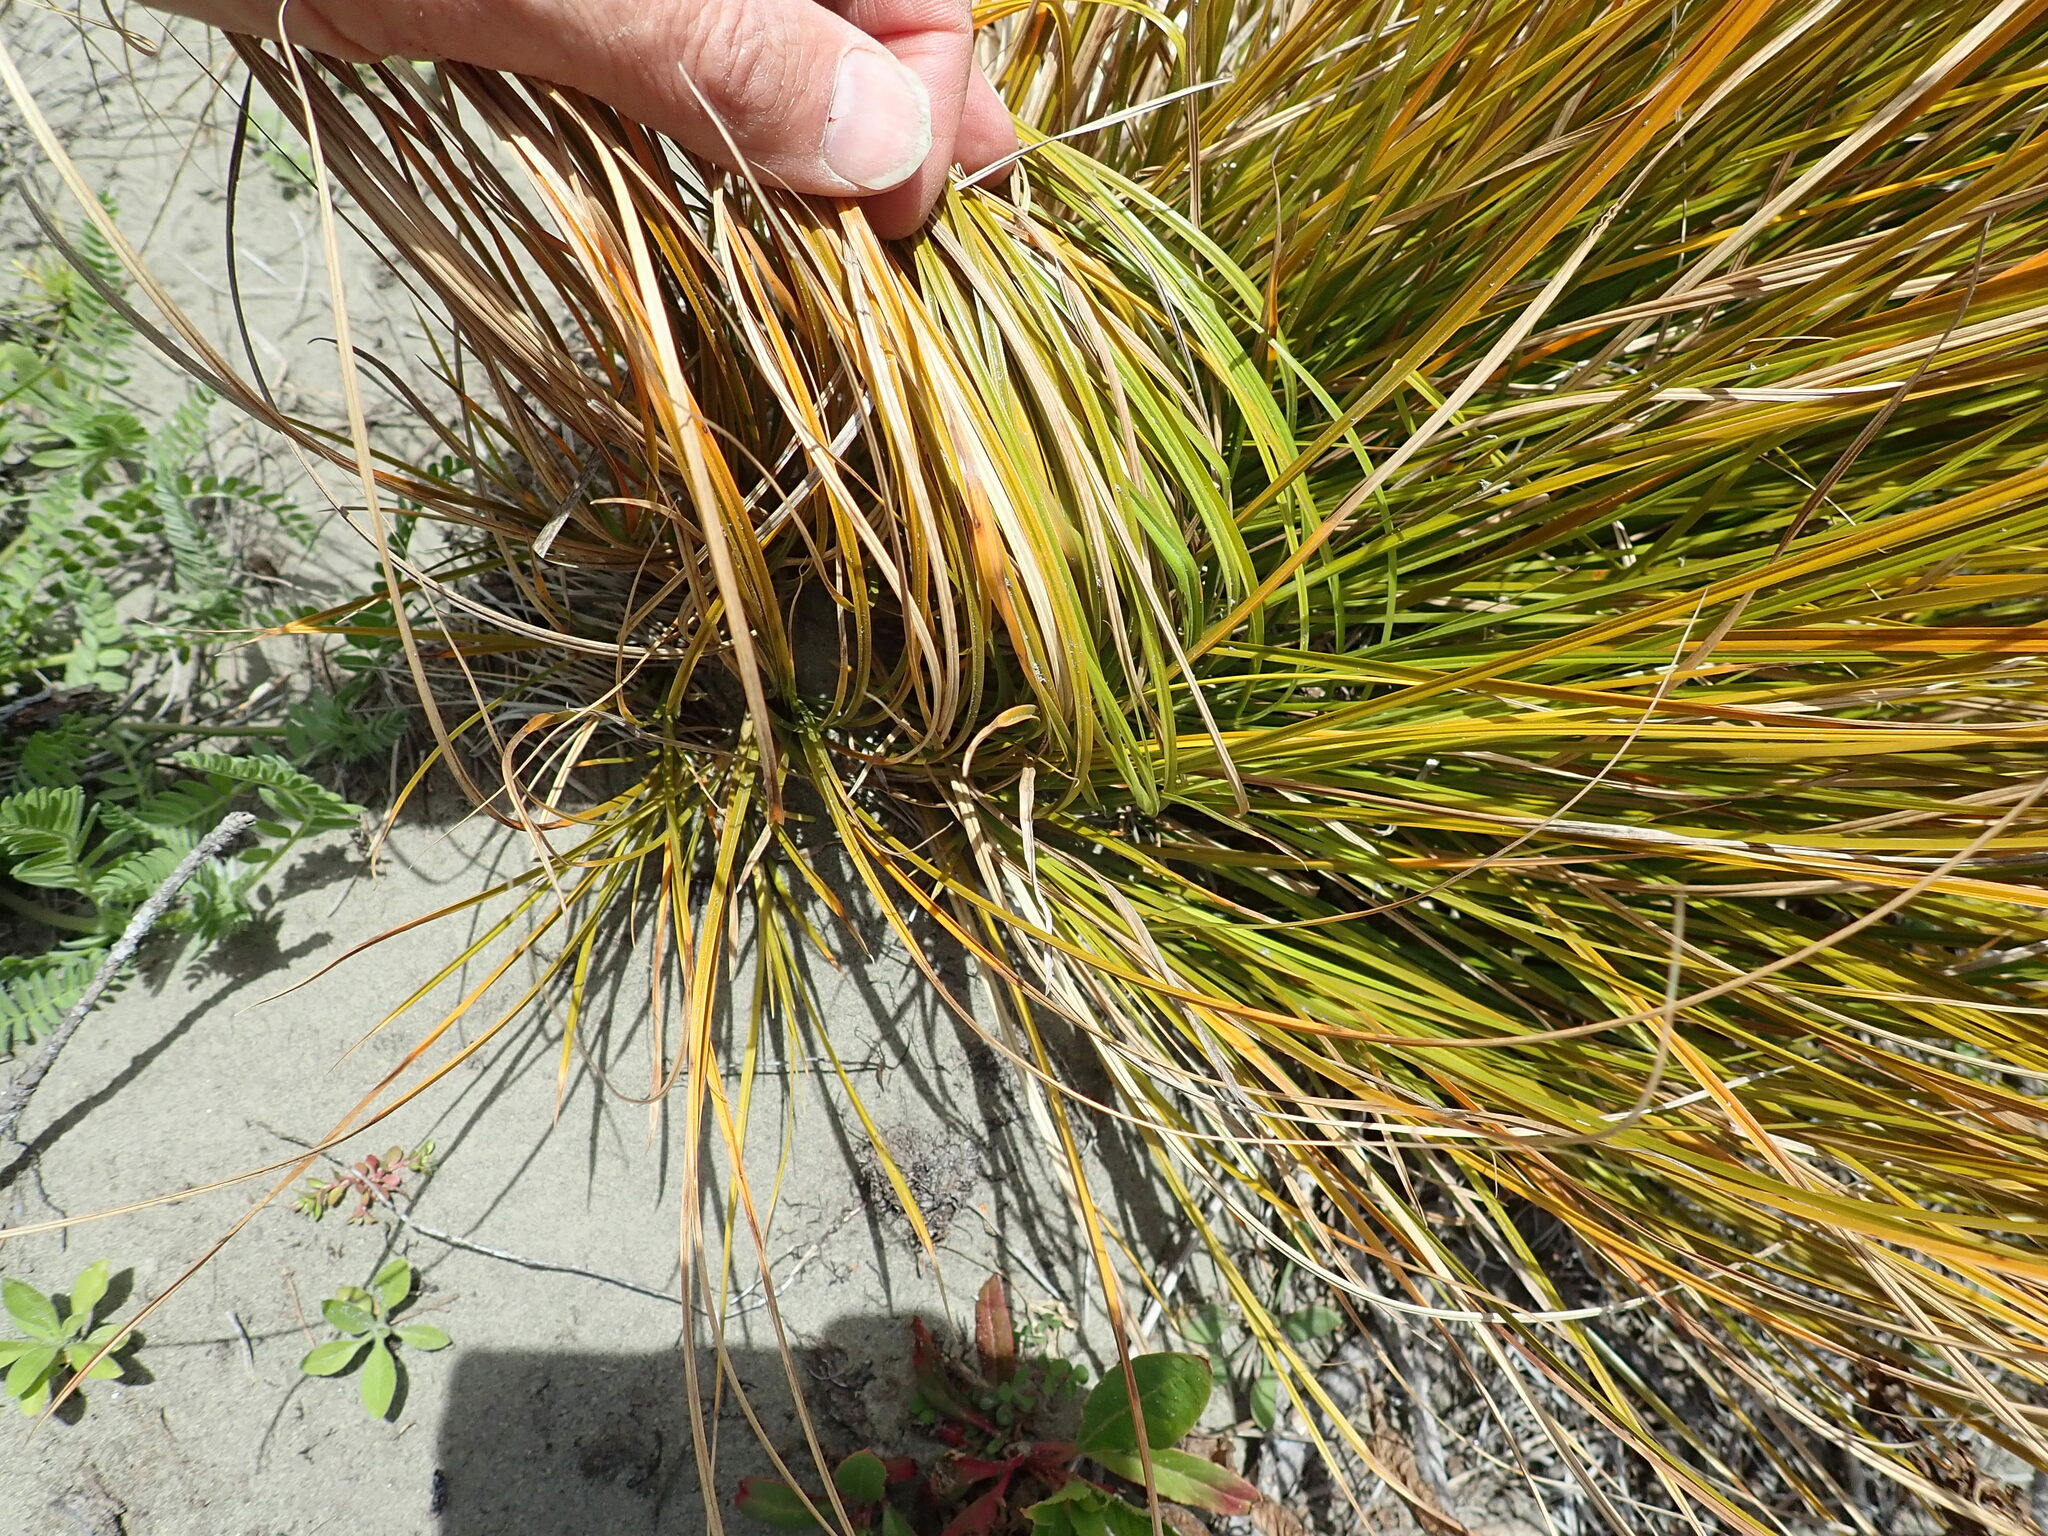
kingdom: Plantae
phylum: Tracheophyta
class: Liliopsida
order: Poales
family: Cyperaceae
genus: Carex
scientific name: Carex testacea
